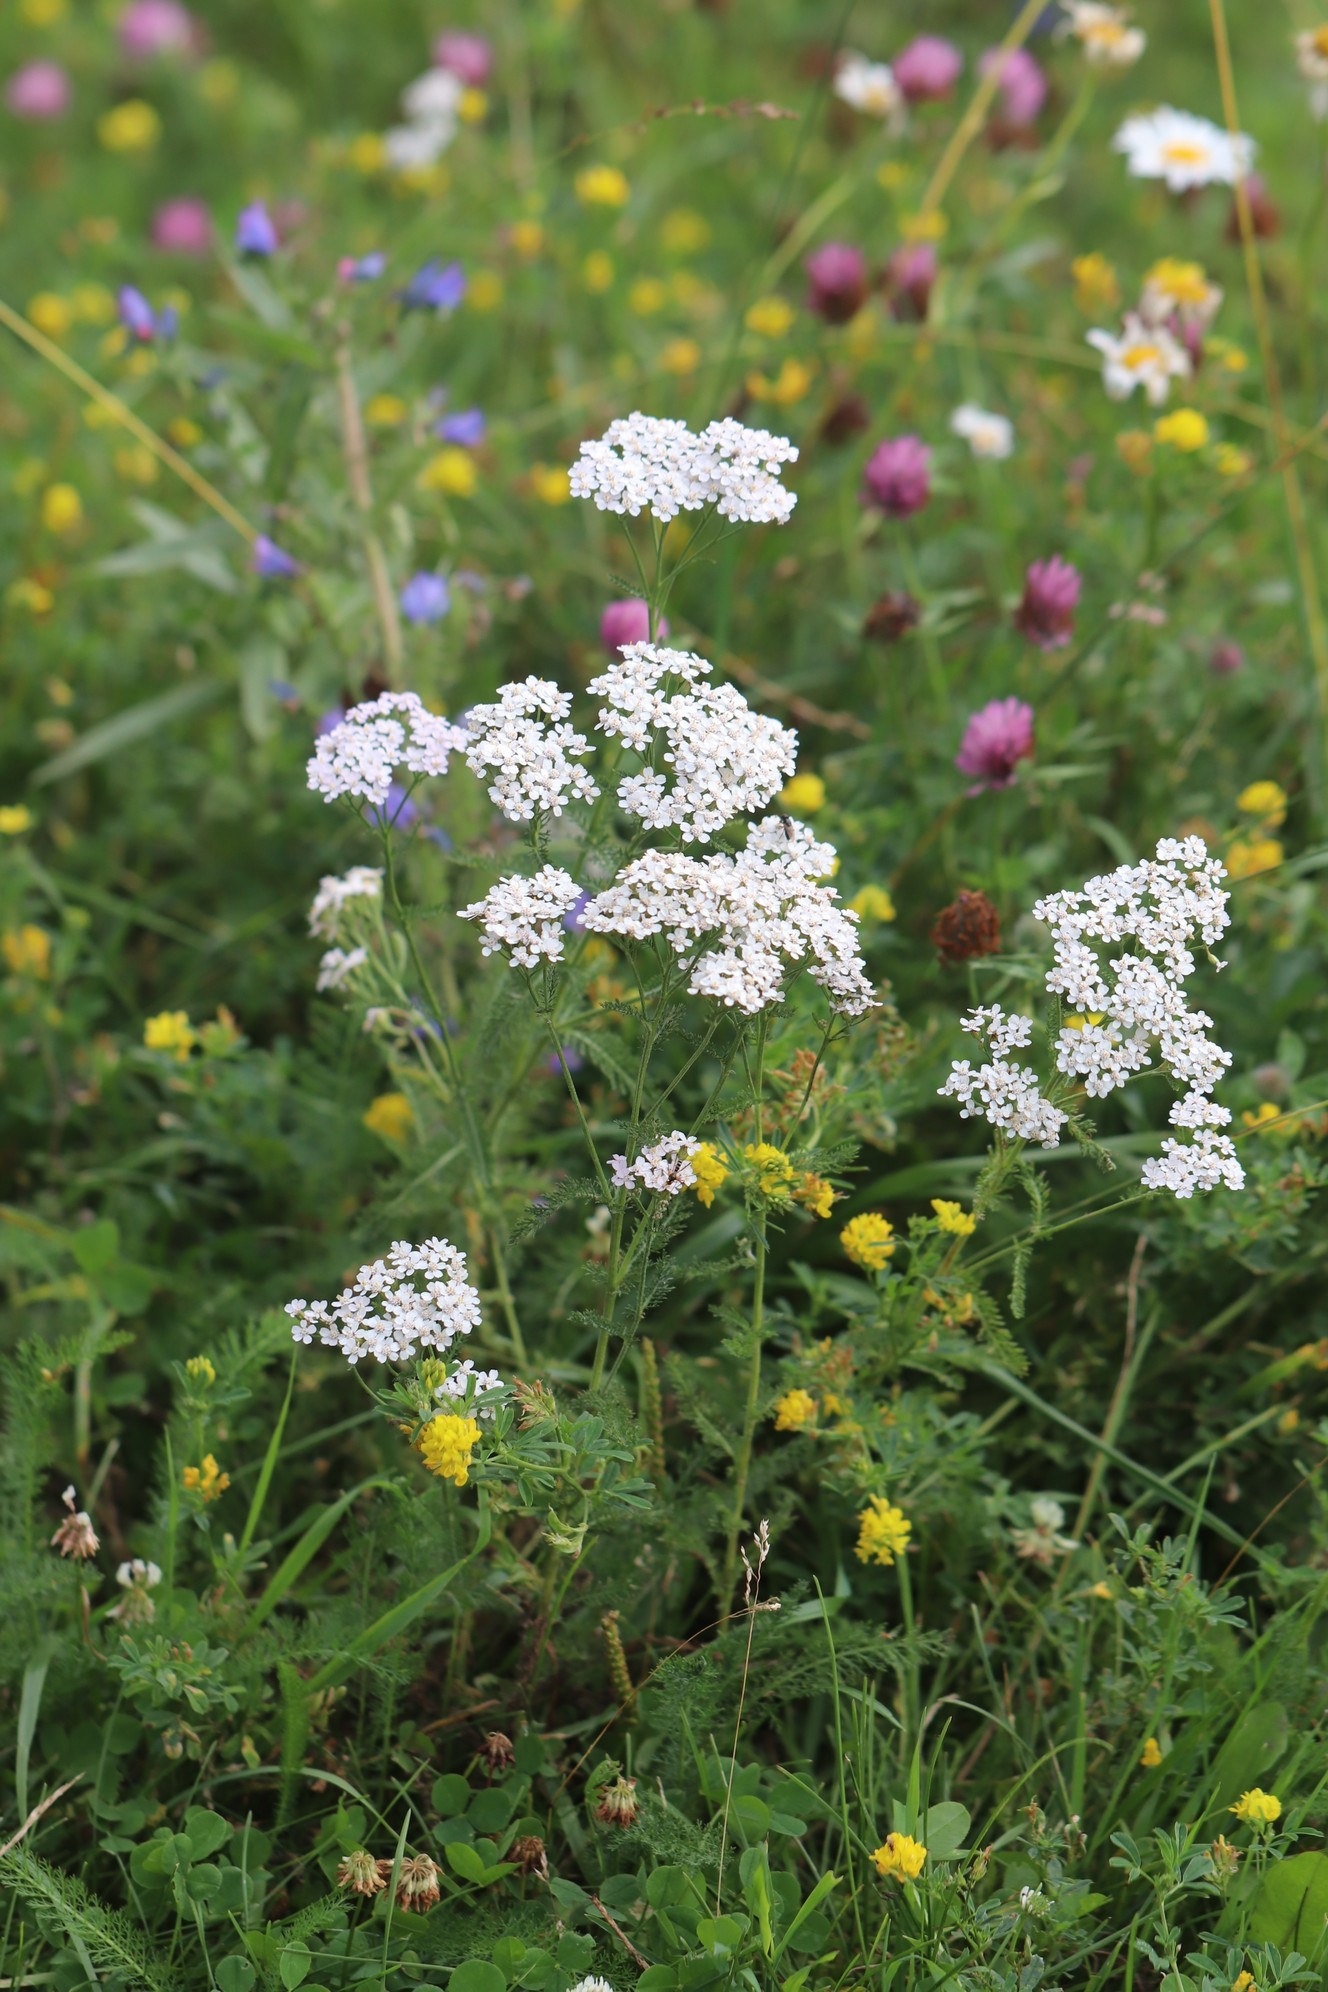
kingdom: Plantae
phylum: Tracheophyta
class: Magnoliopsida
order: Asterales
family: Asteraceae
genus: Achillea
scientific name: Achillea asiatica
